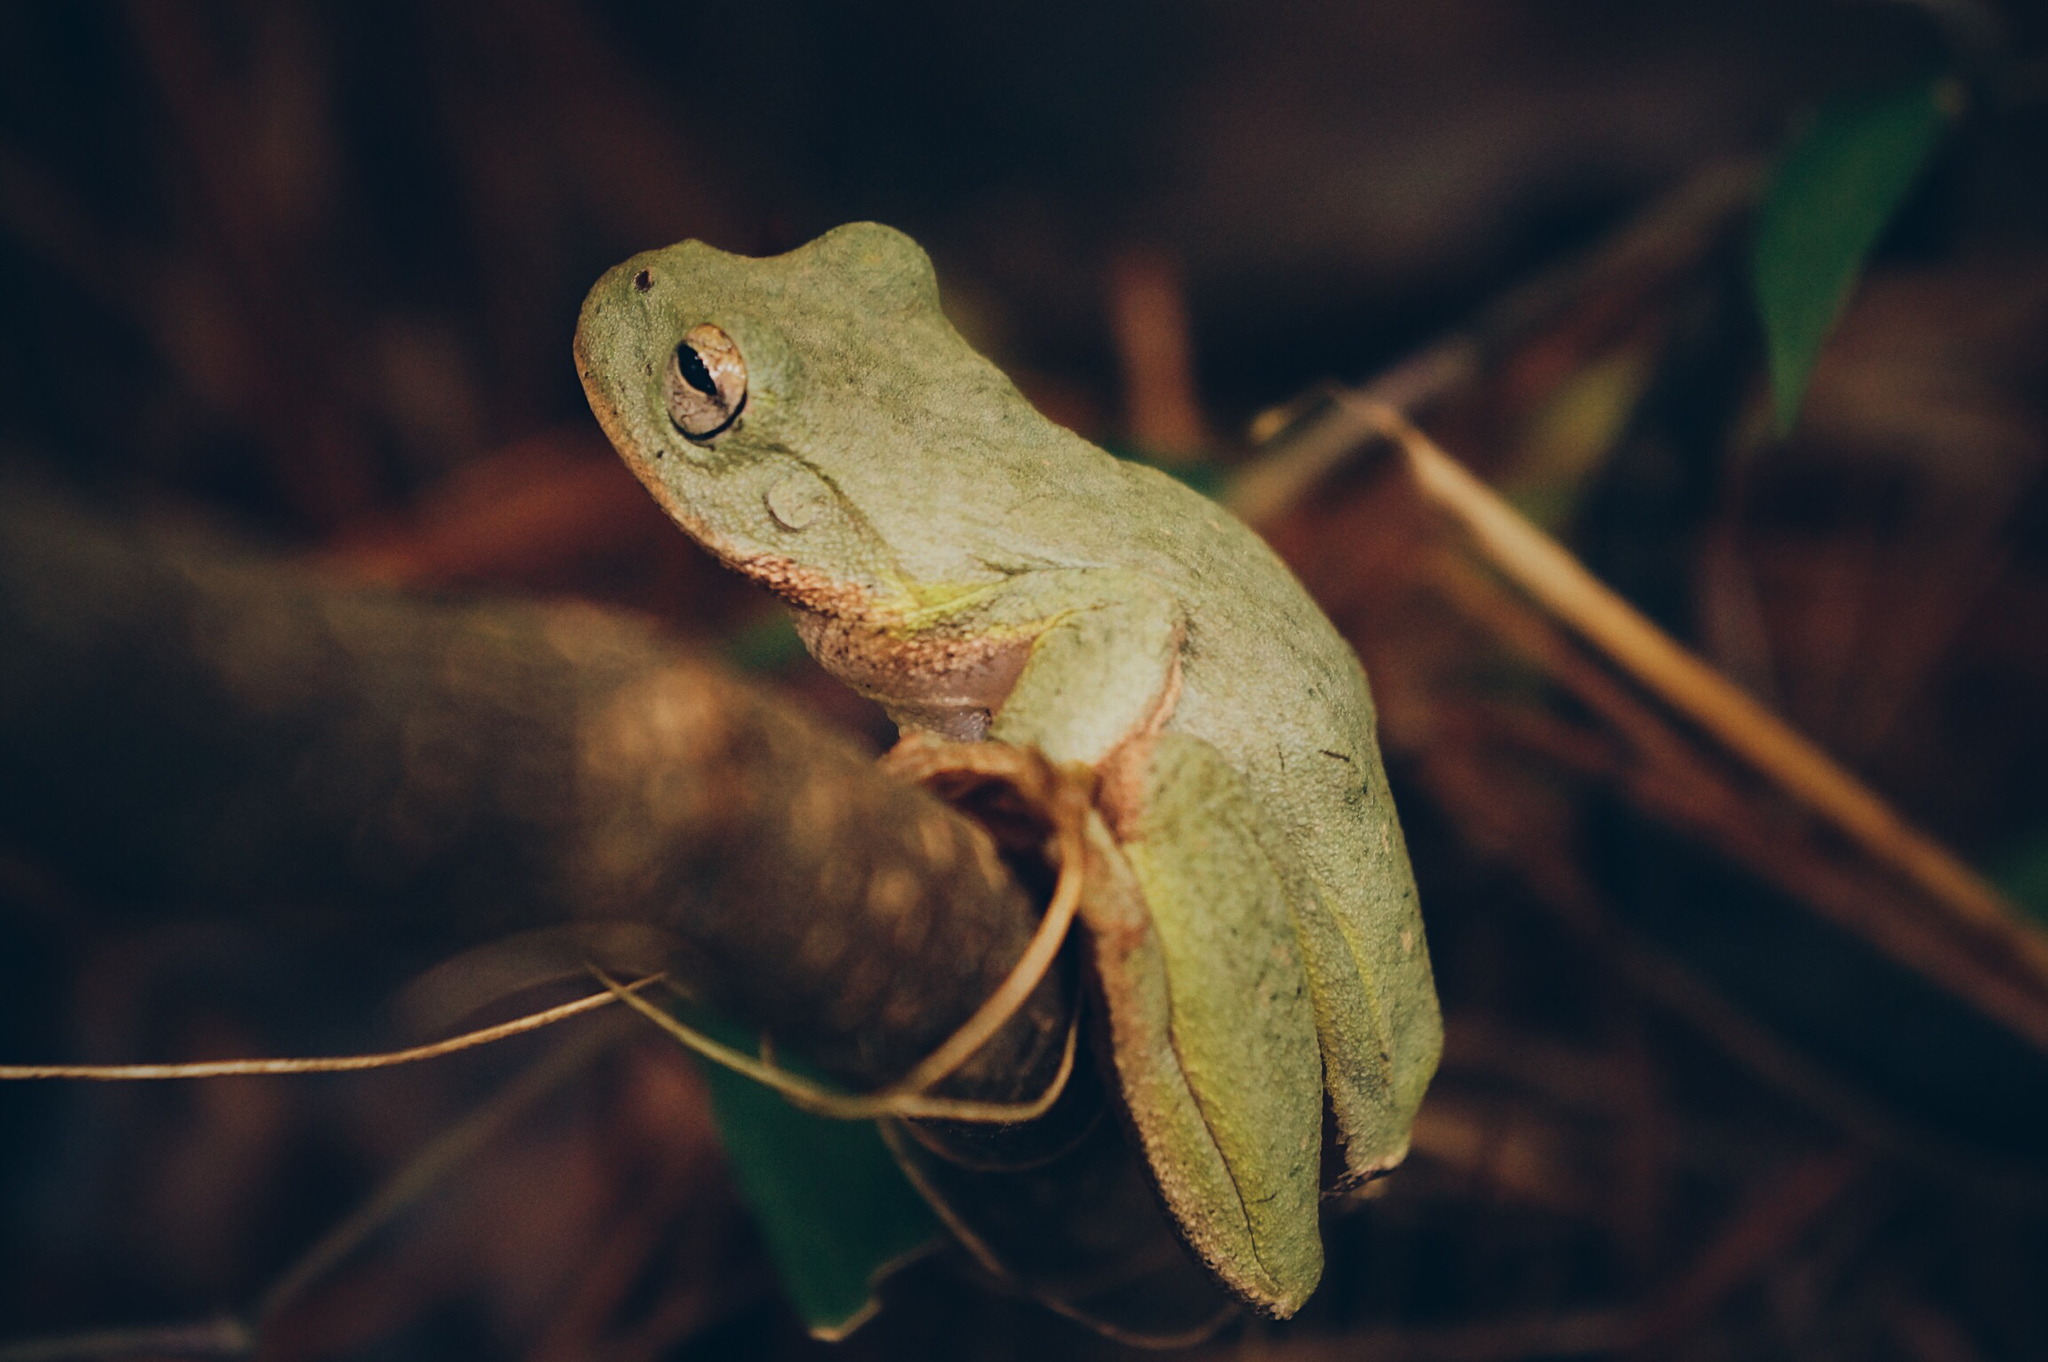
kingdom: Animalia
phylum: Chordata
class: Amphibia
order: Anura
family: Hylidae
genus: Rheohyla
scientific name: Rheohyla miotympanum
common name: Small-eard hyla
